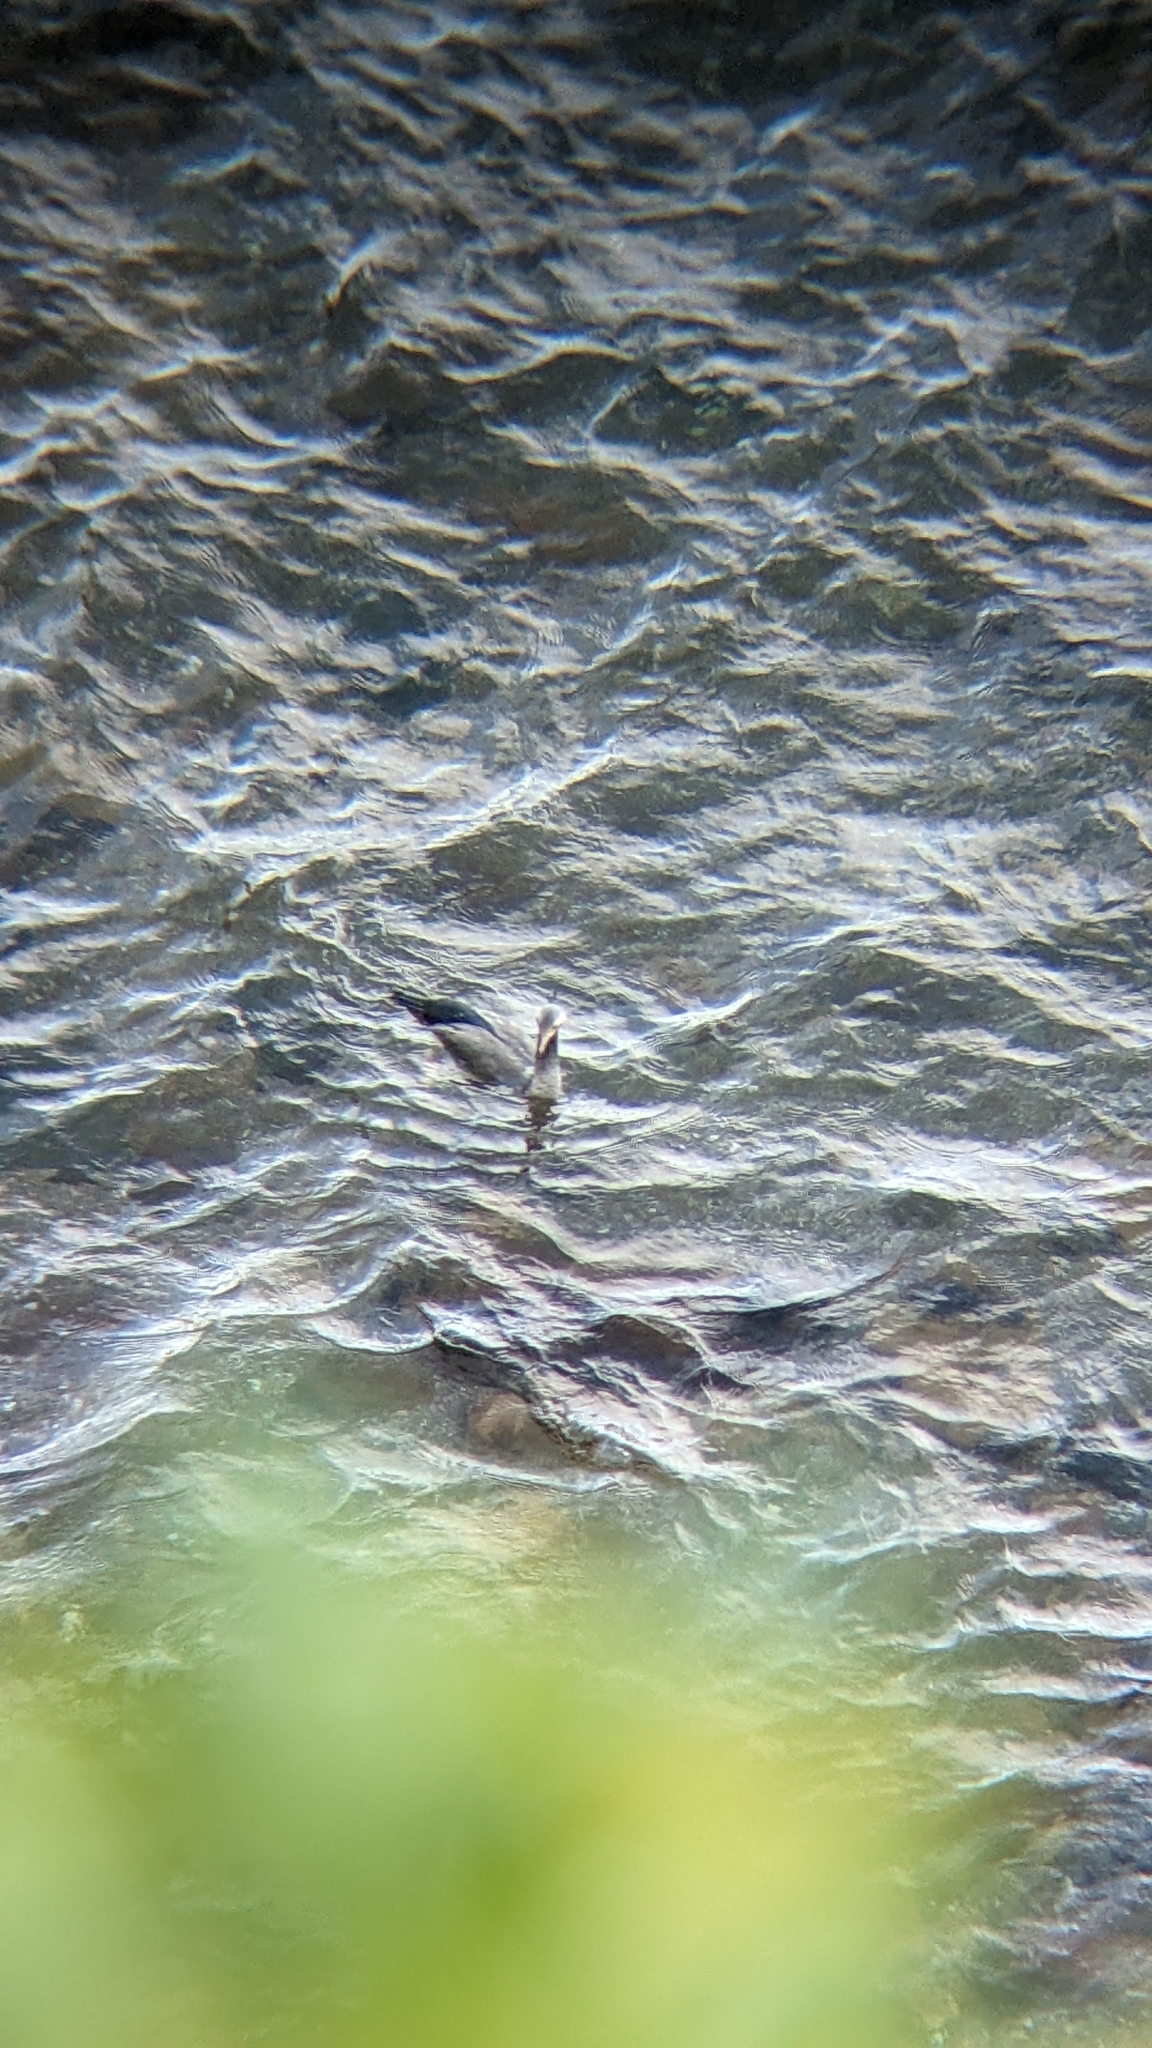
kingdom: Animalia
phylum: Chordata
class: Aves
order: Suliformes
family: Phalacrocoracidae
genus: Phalacrocorax
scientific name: Phalacrocorax punctatus
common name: Spotted shag
